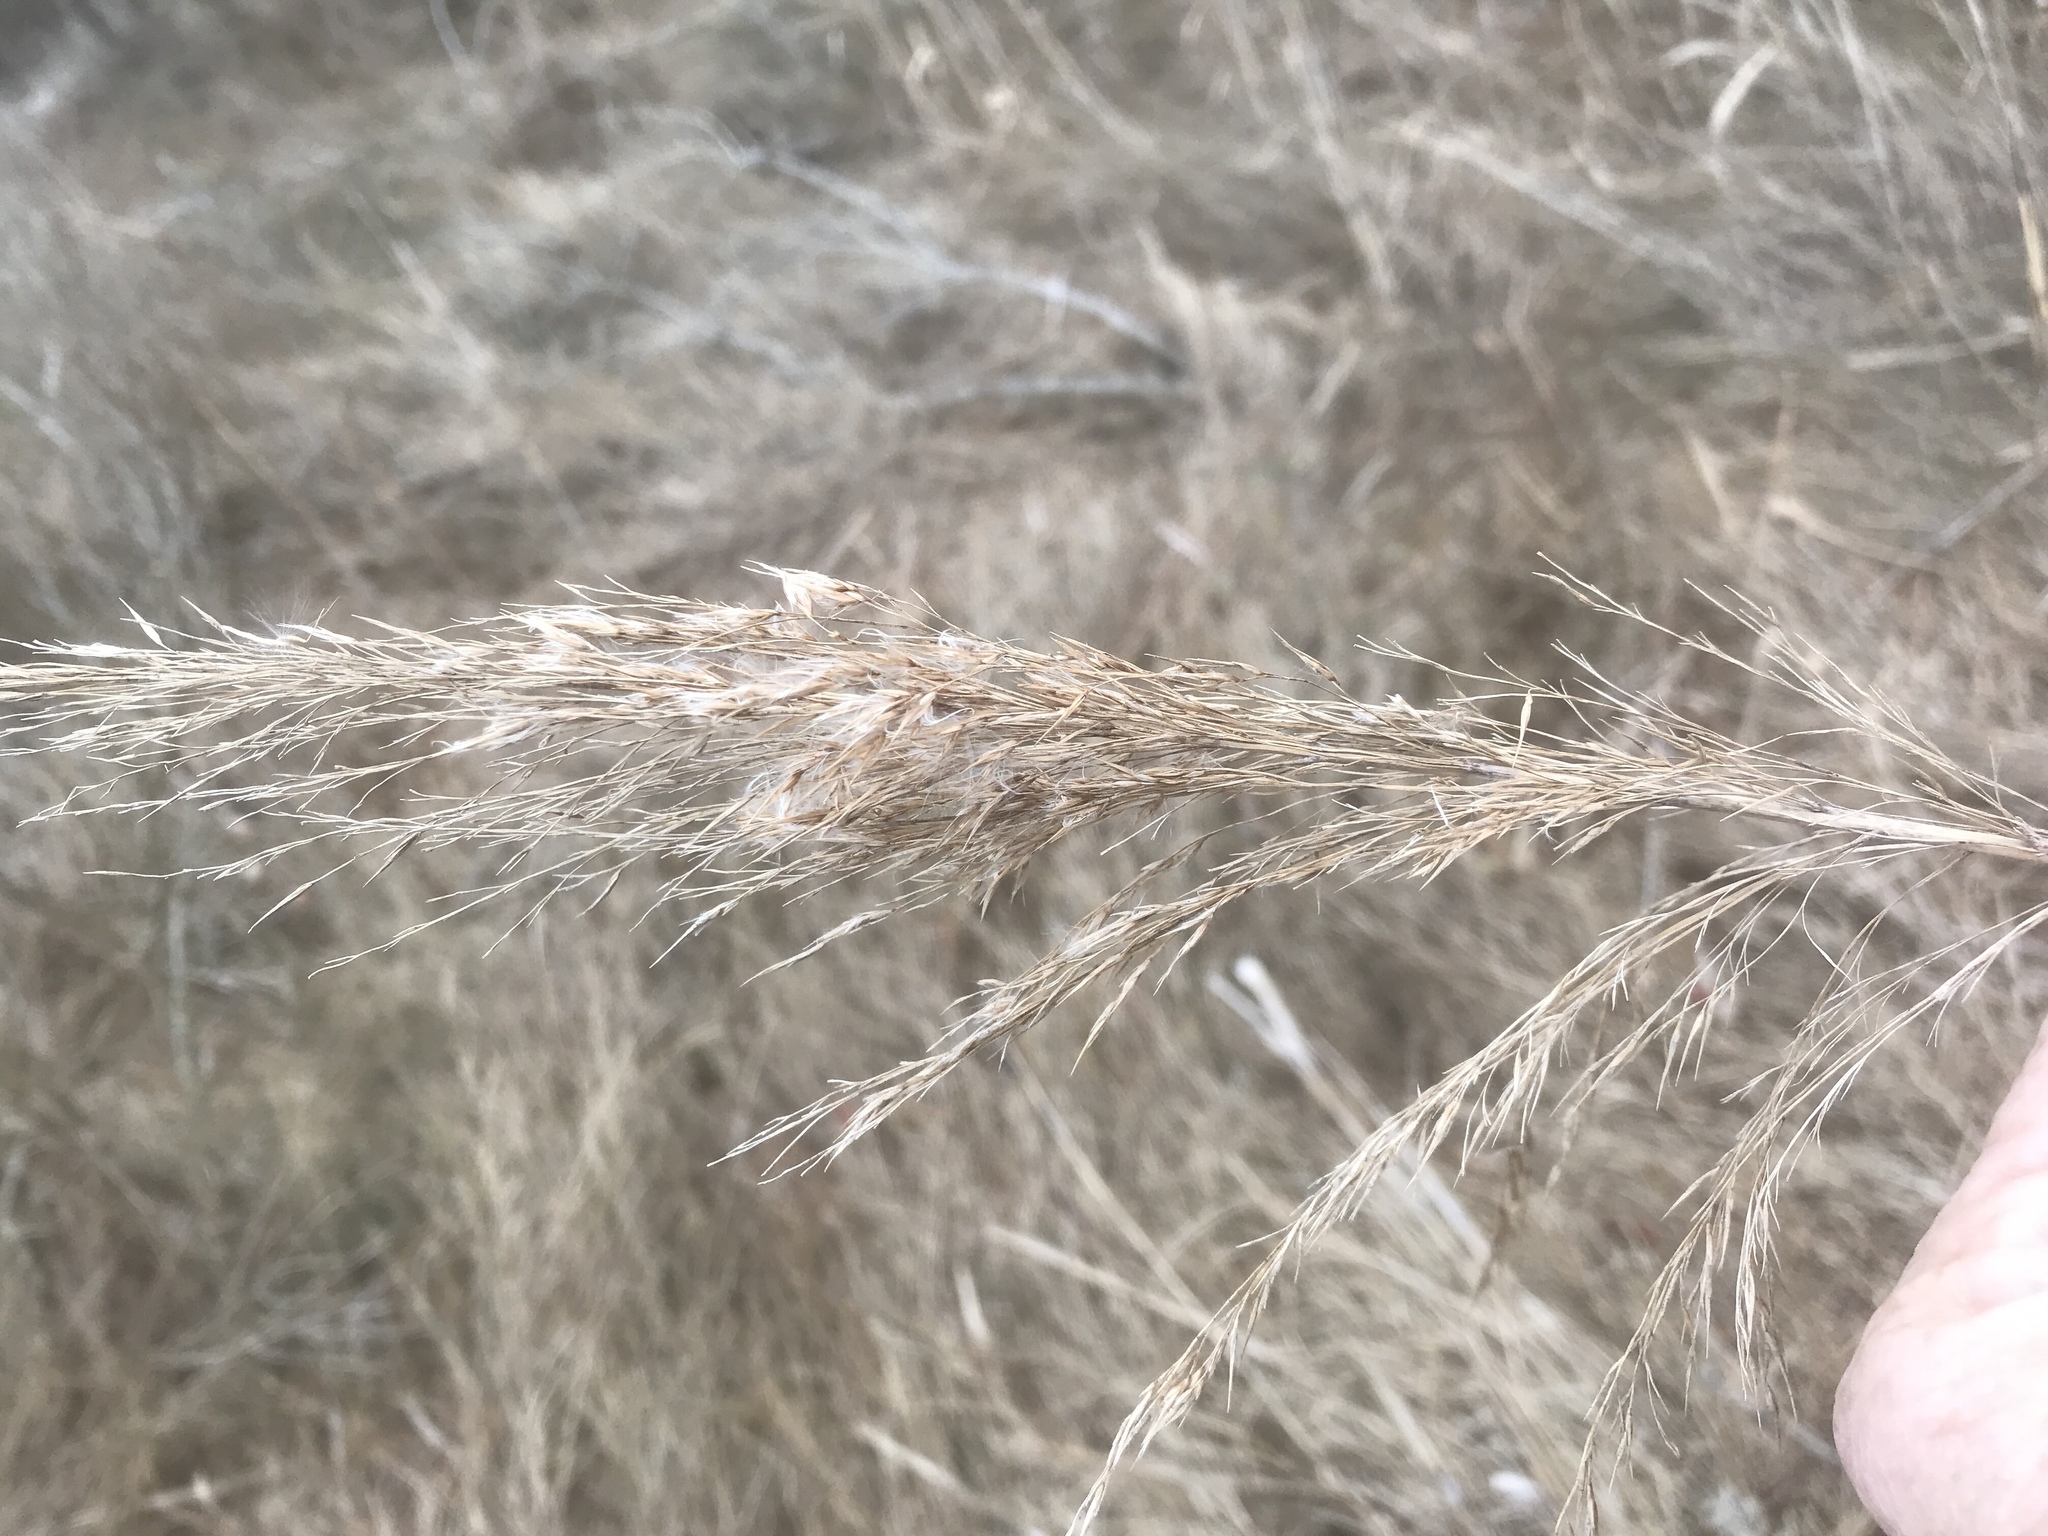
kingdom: Plantae
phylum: Tracheophyta
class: Liliopsida
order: Poales
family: Poaceae
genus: Phragmites
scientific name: Phragmites australis
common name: Common reed
